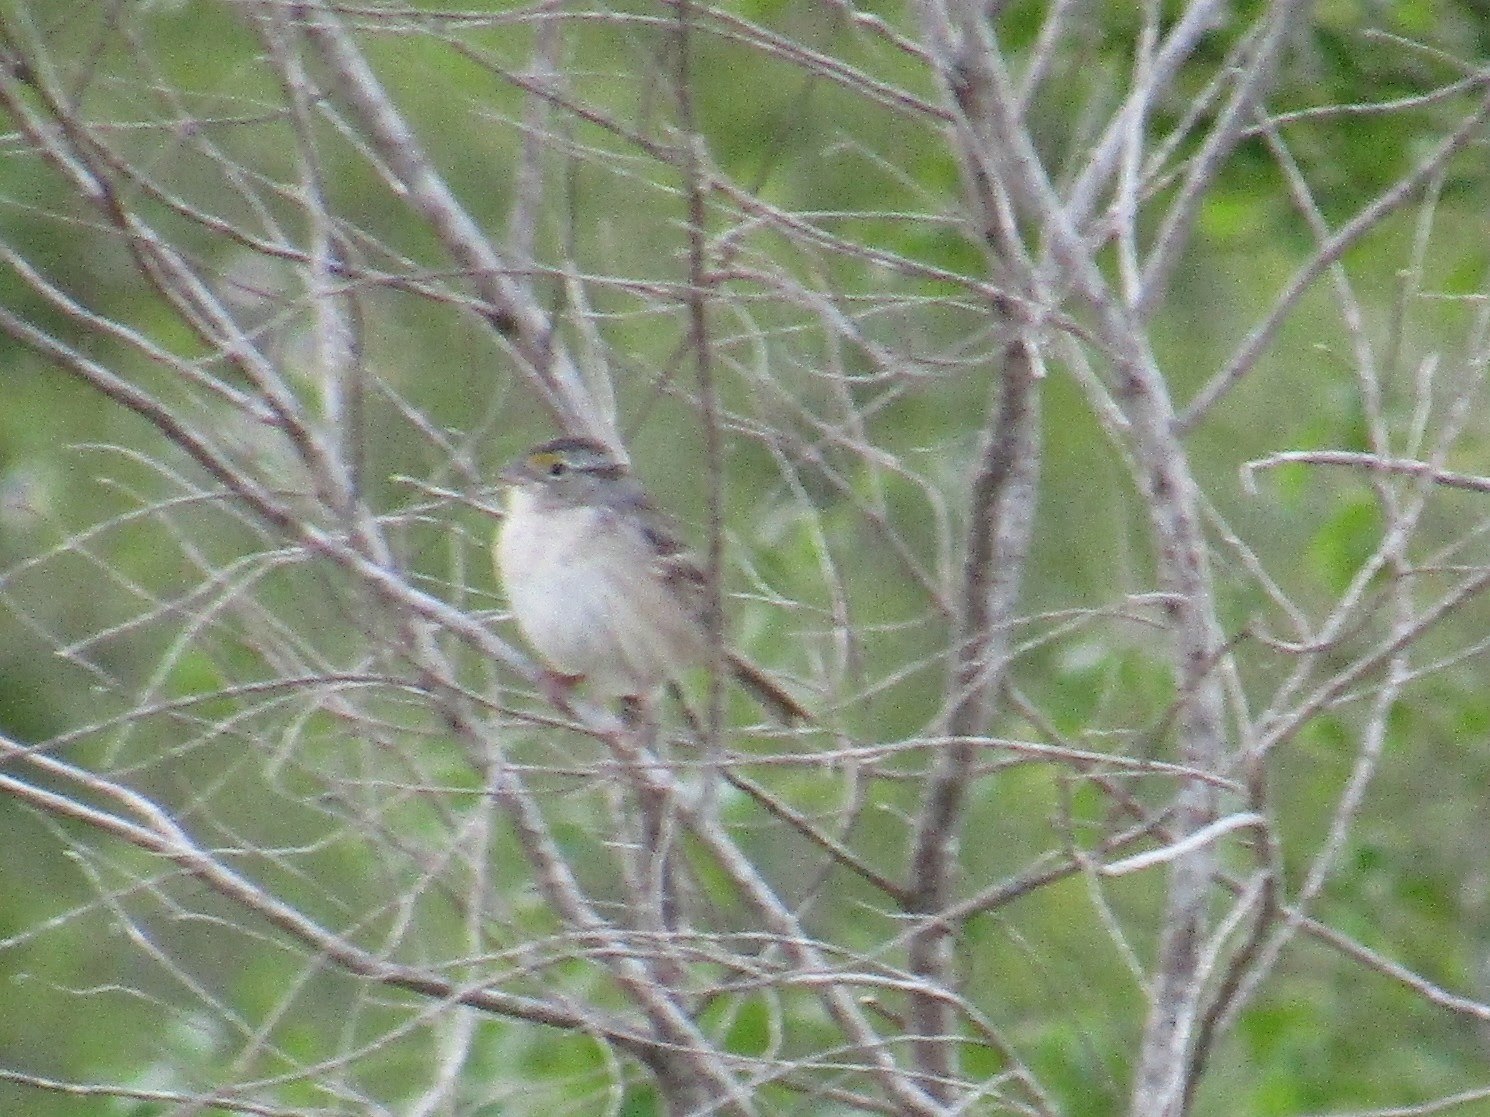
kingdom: Animalia
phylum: Chordata
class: Aves
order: Passeriformes
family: Passerellidae
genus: Ammodramus
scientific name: Ammodramus humeralis
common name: Grassland sparrow
